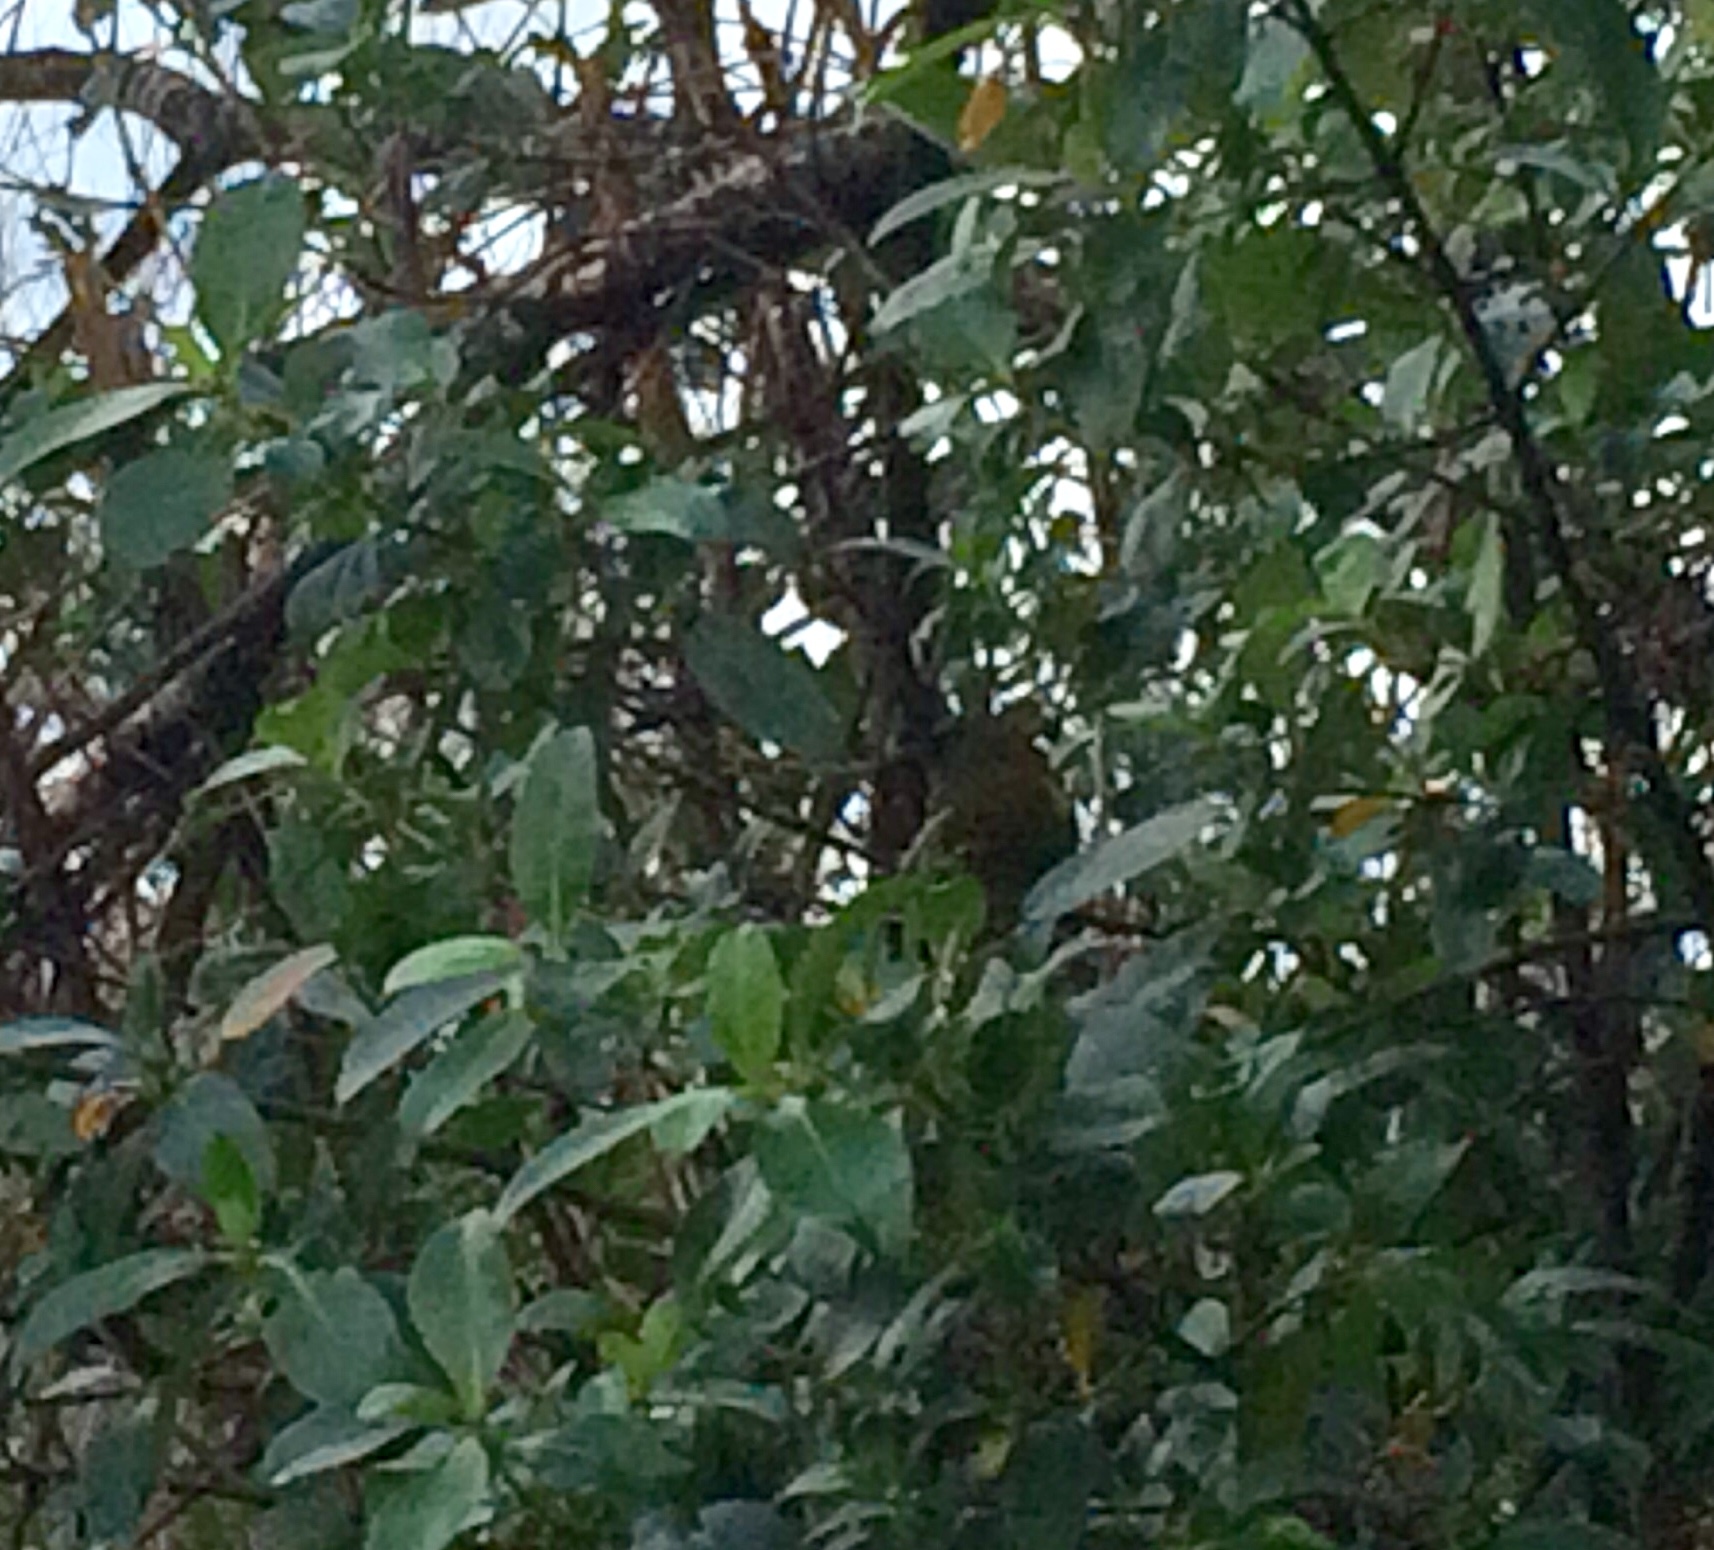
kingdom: Animalia
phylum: Chordata
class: Aves
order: Passeriformes
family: Meliphagidae
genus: Anthornis
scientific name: Anthornis melanura
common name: New zealand bellbird
